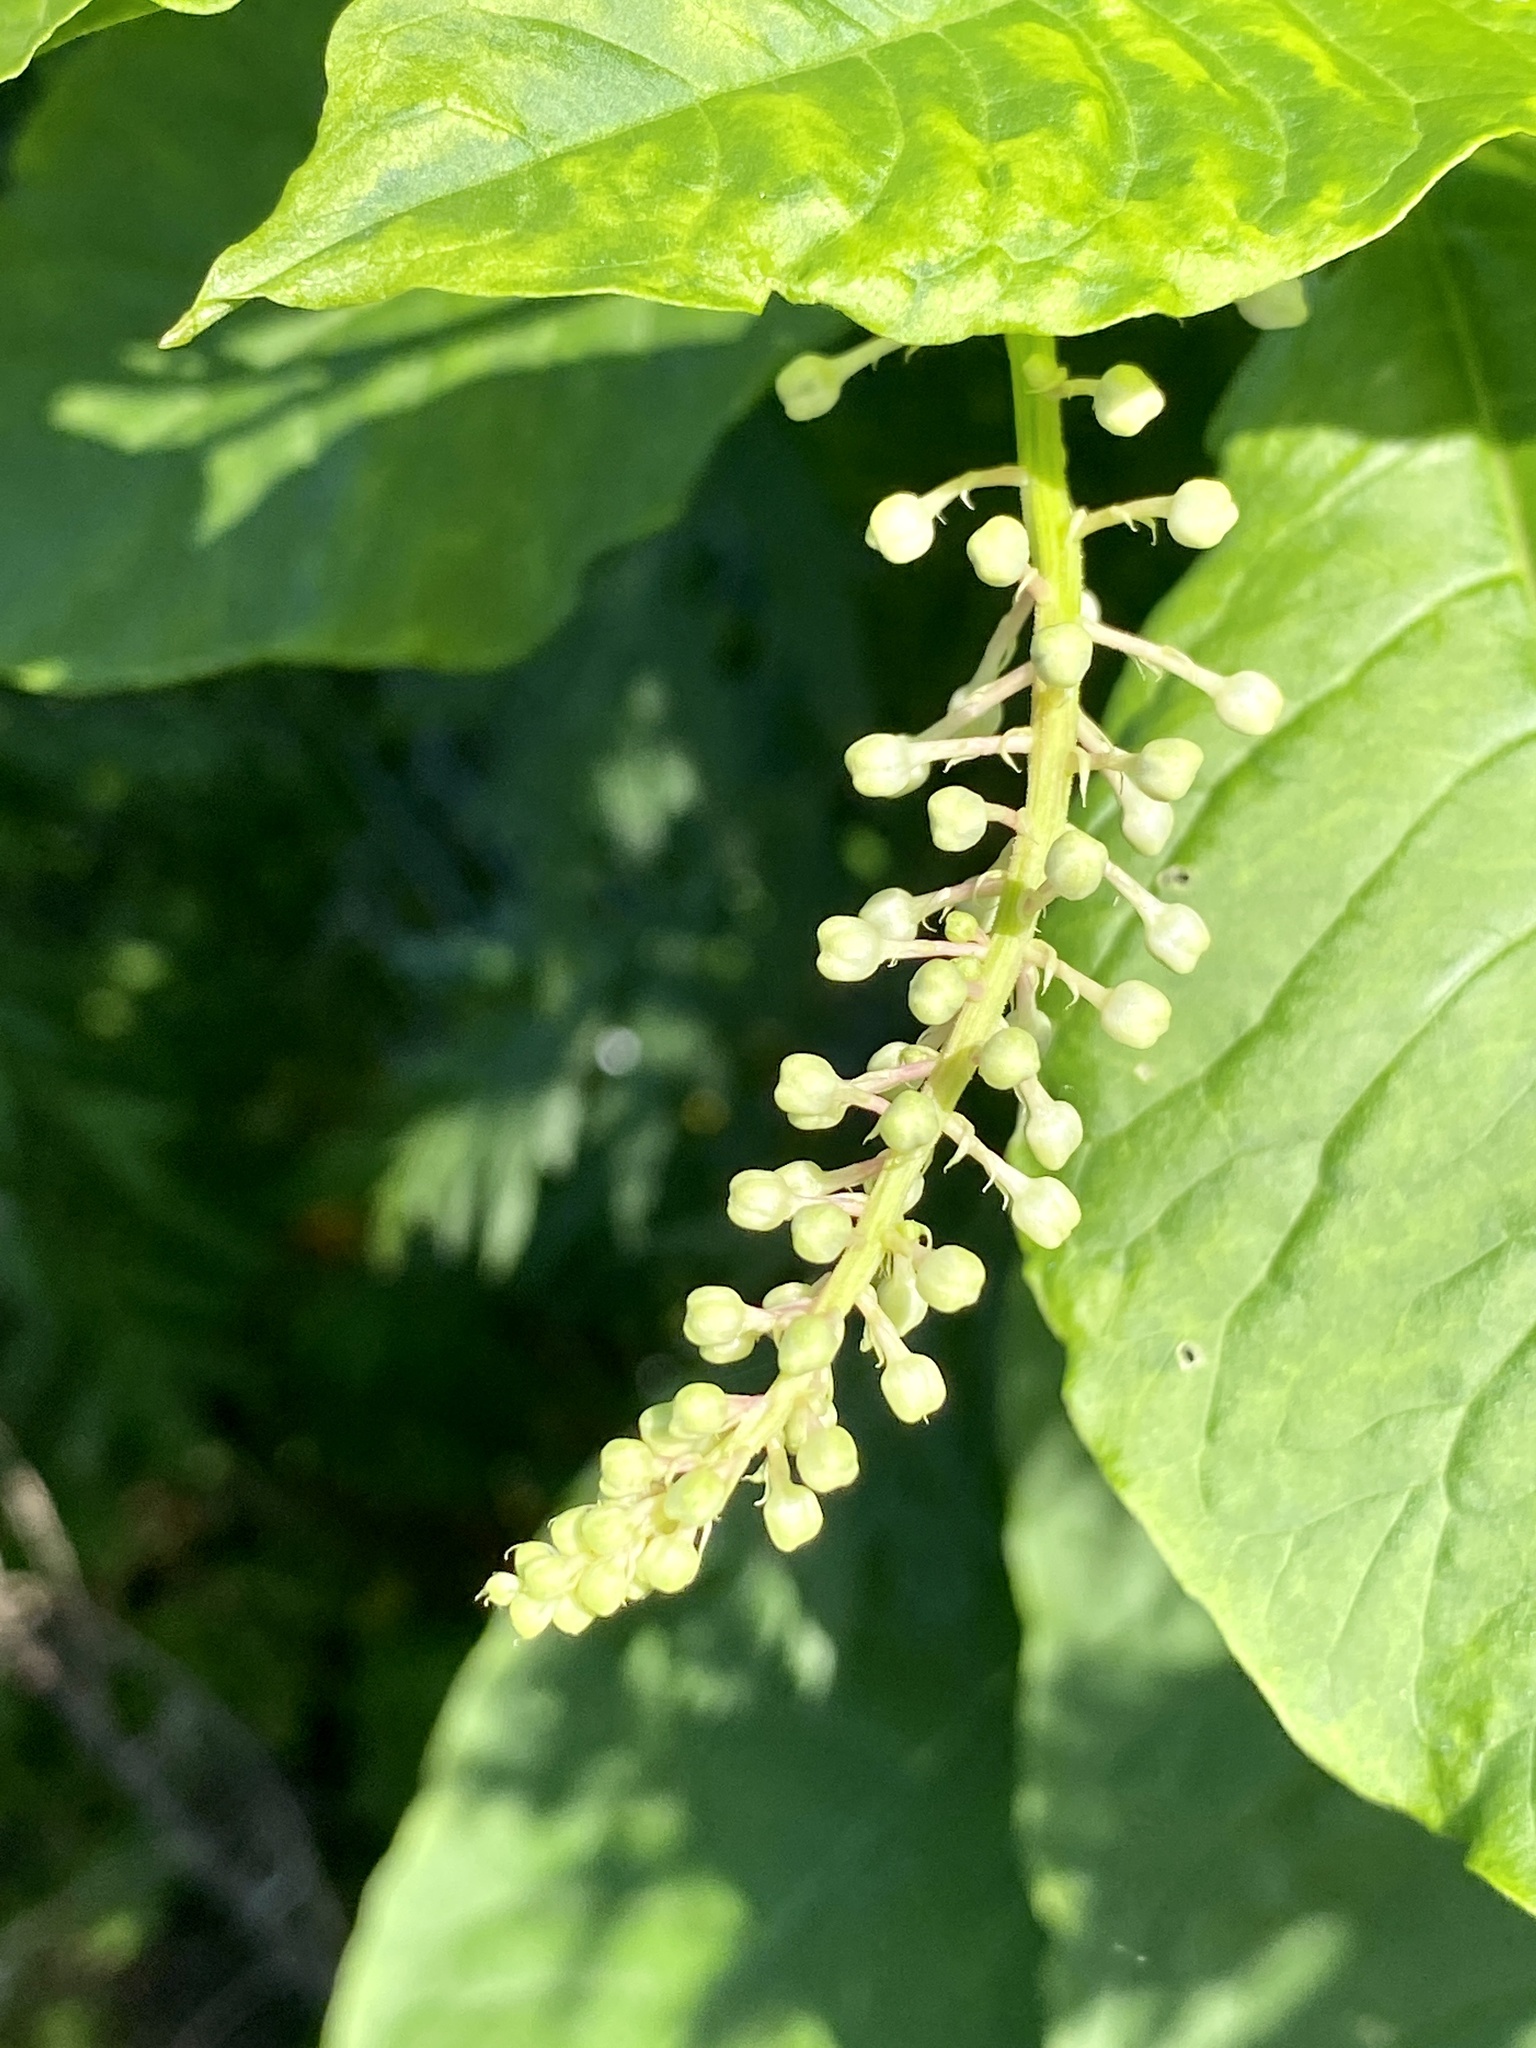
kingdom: Plantae
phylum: Tracheophyta
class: Magnoliopsida
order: Caryophyllales
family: Phytolaccaceae
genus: Phytolacca
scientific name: Phytolacca americana
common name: American pokeweed
